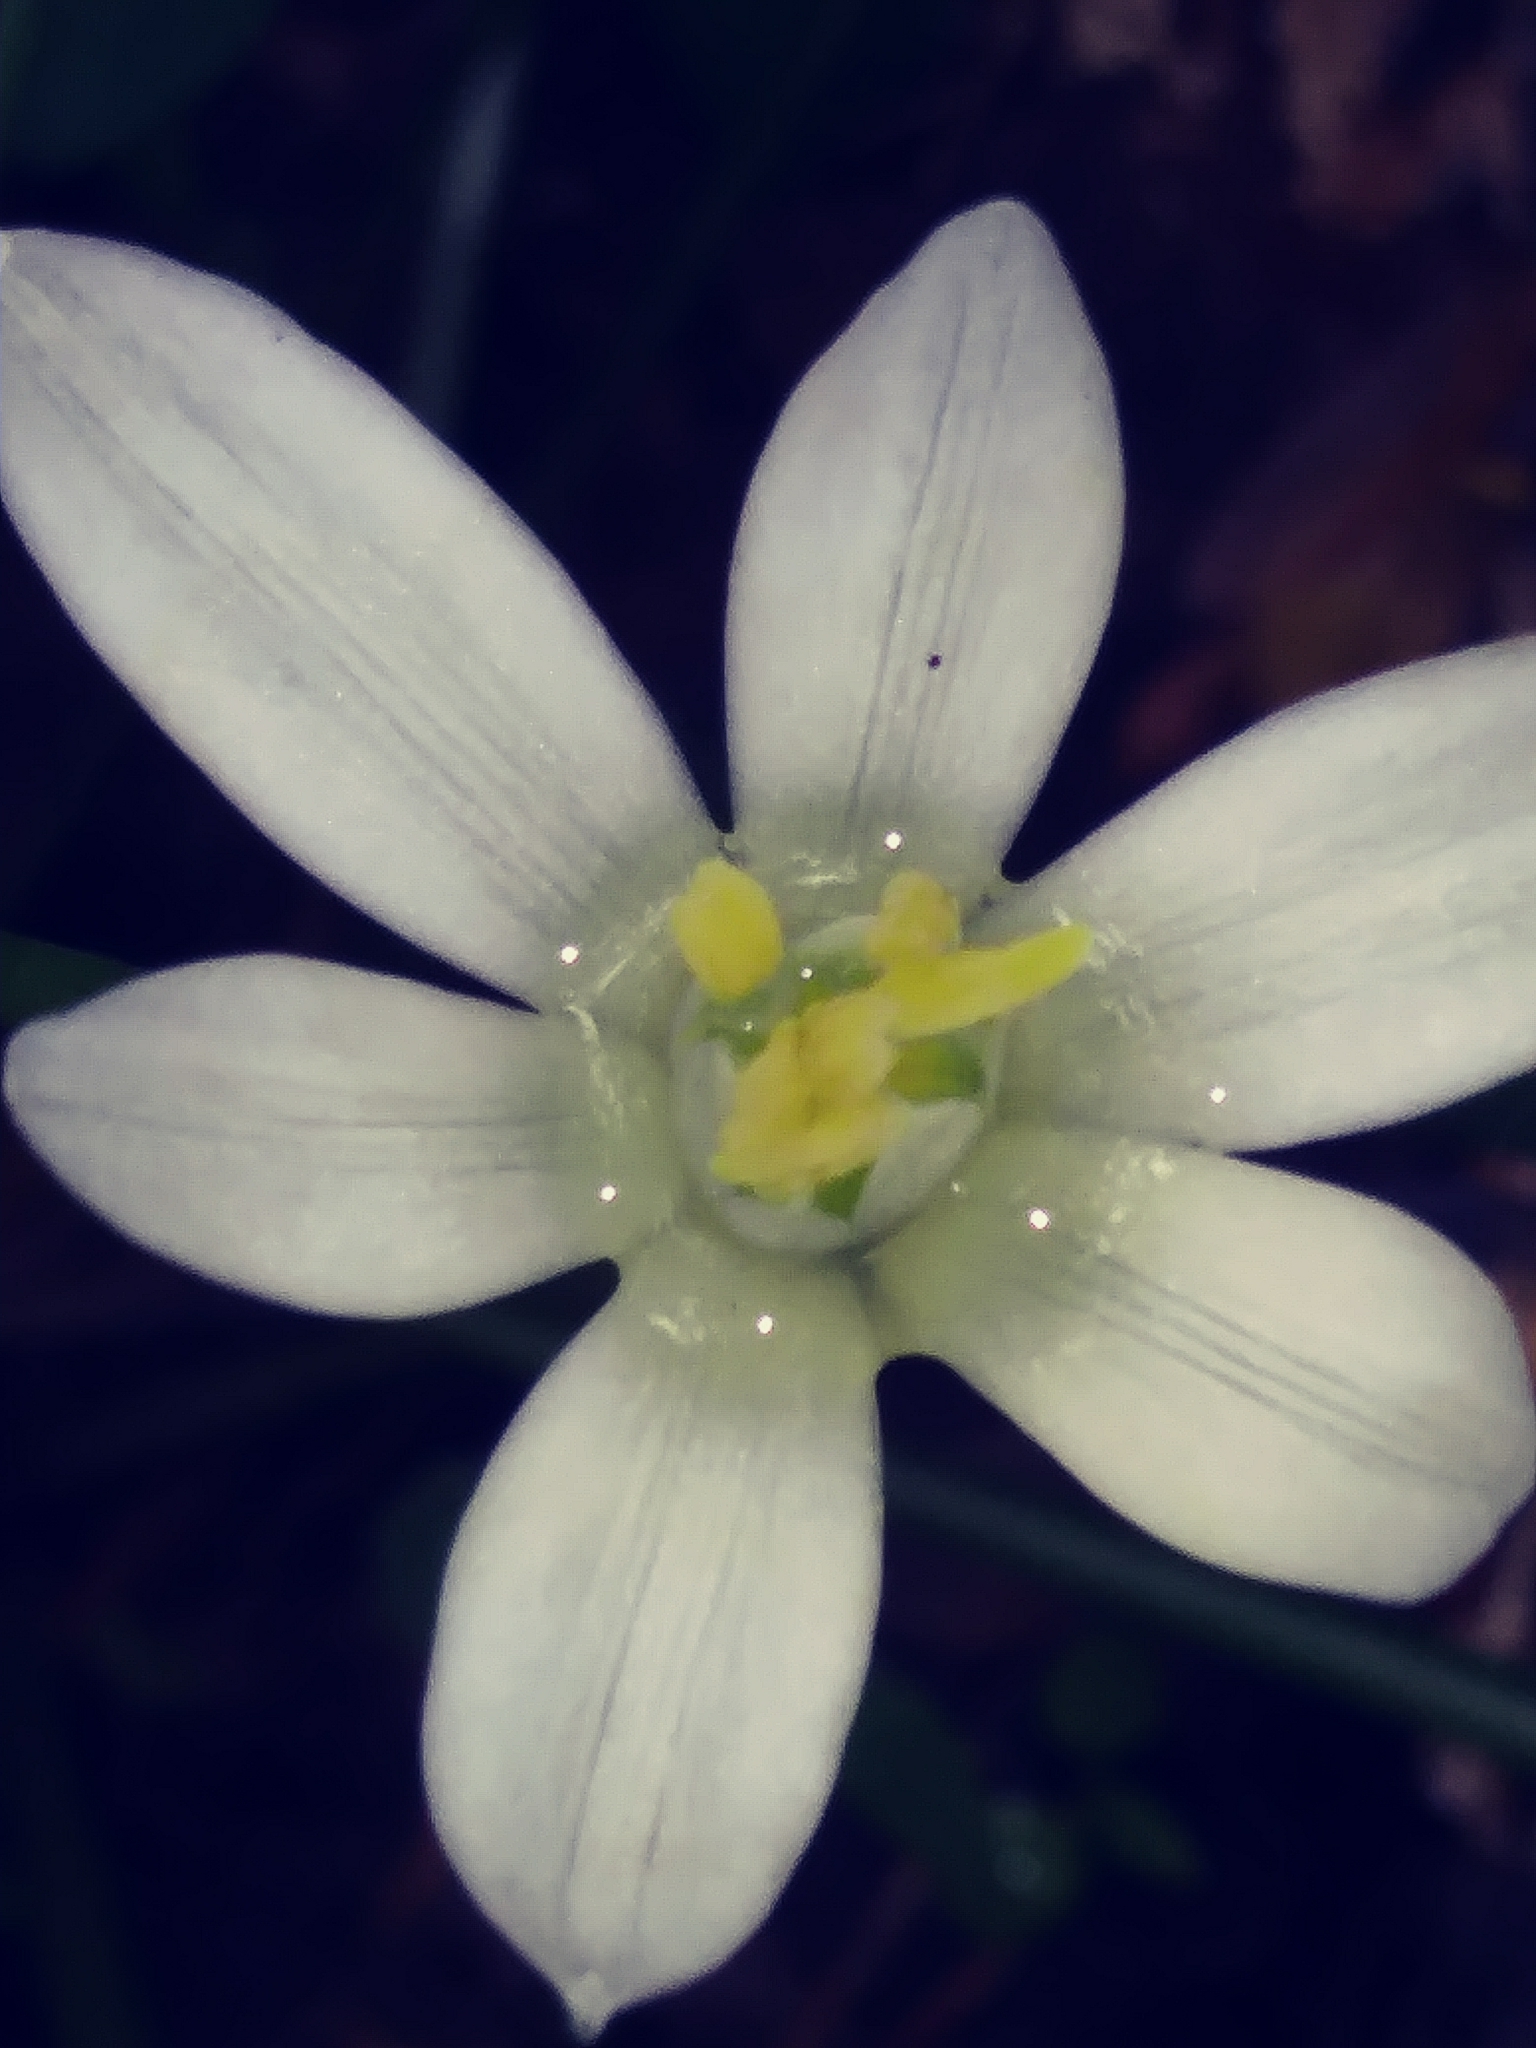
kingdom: Plantae
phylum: Tracheophyta
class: Liliopsida
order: Asparagales
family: Asparagaceae
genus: Ornithogalum
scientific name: Ornithogalum umbellatum
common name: Garden star-of-bethlehem
